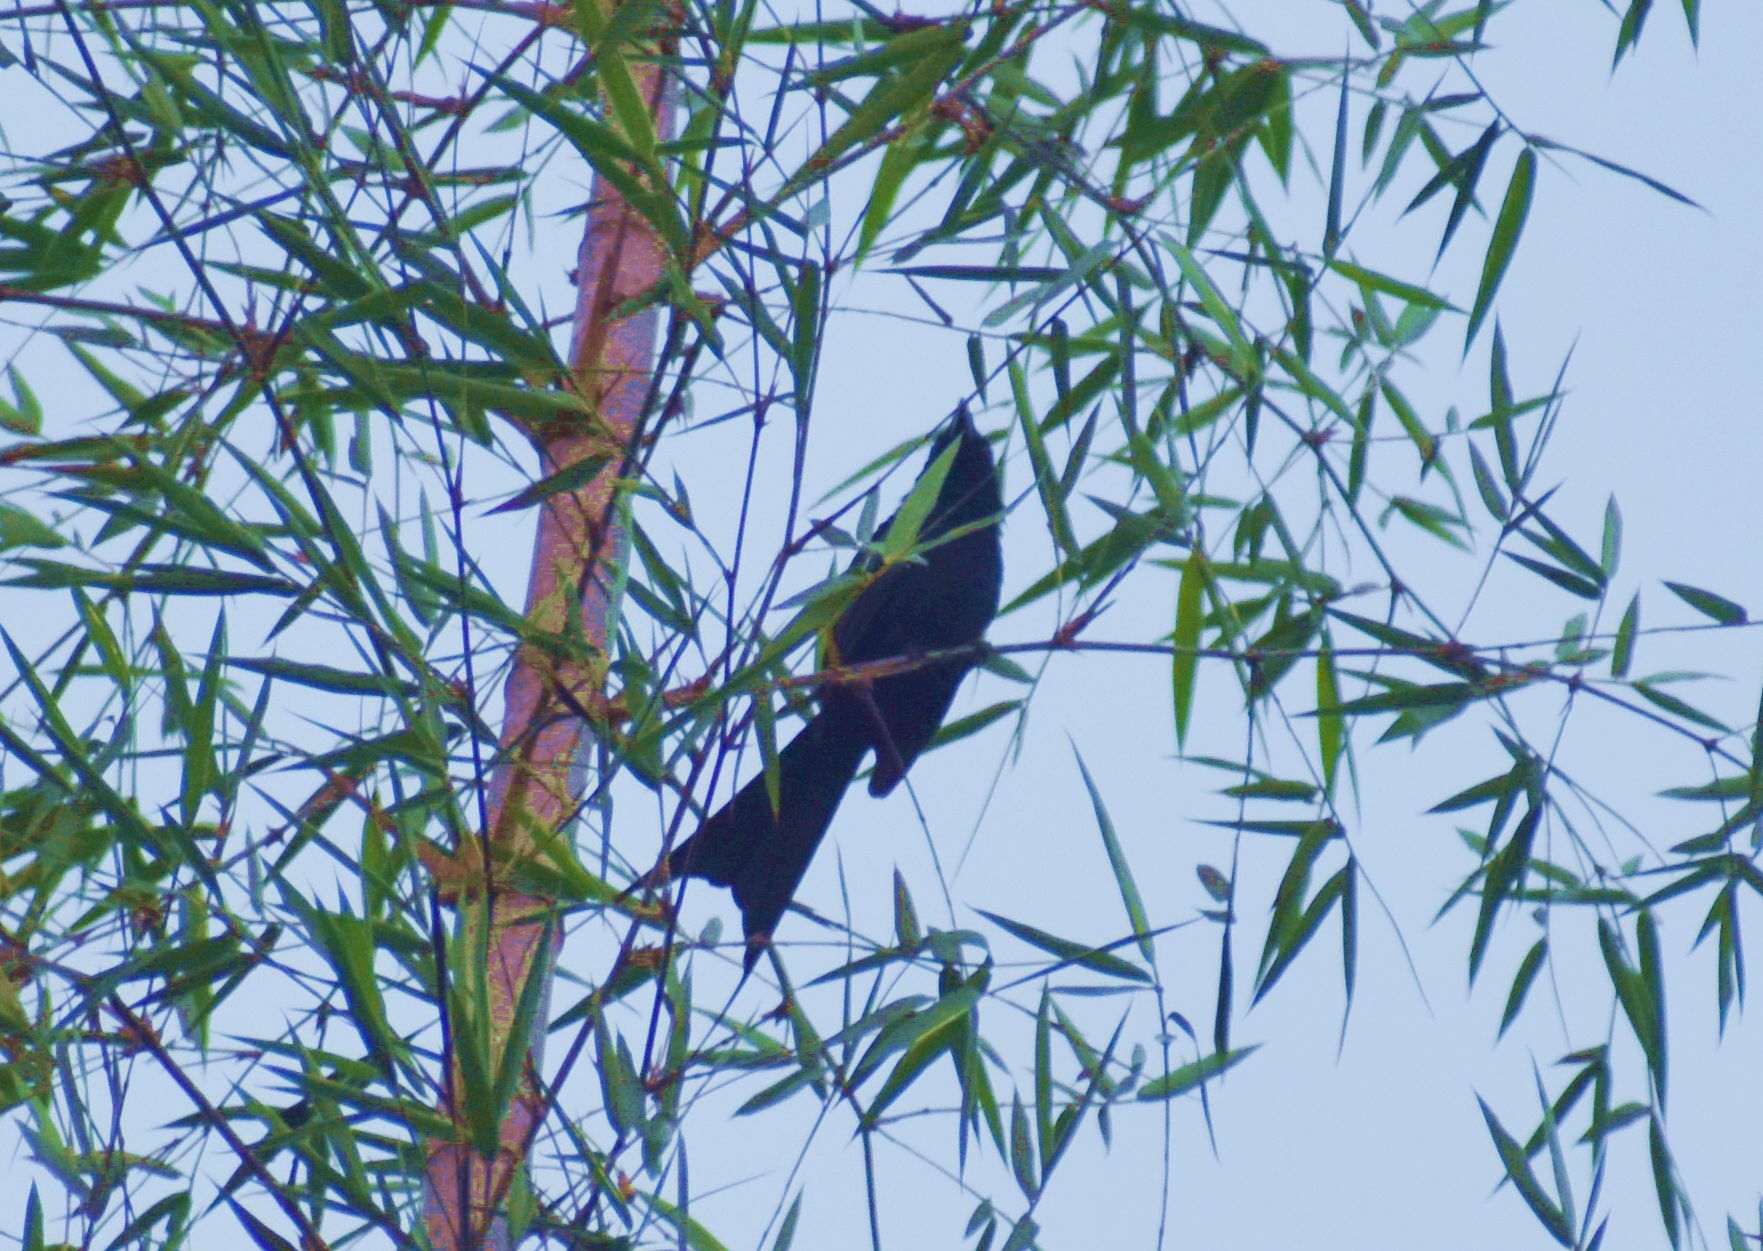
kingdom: Animalia
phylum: Chordata
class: Aves
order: Passeriformes
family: Dicruridae
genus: Dicrurus
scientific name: Dicrurus paradiseus
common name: Greater racket-tailed drongo
